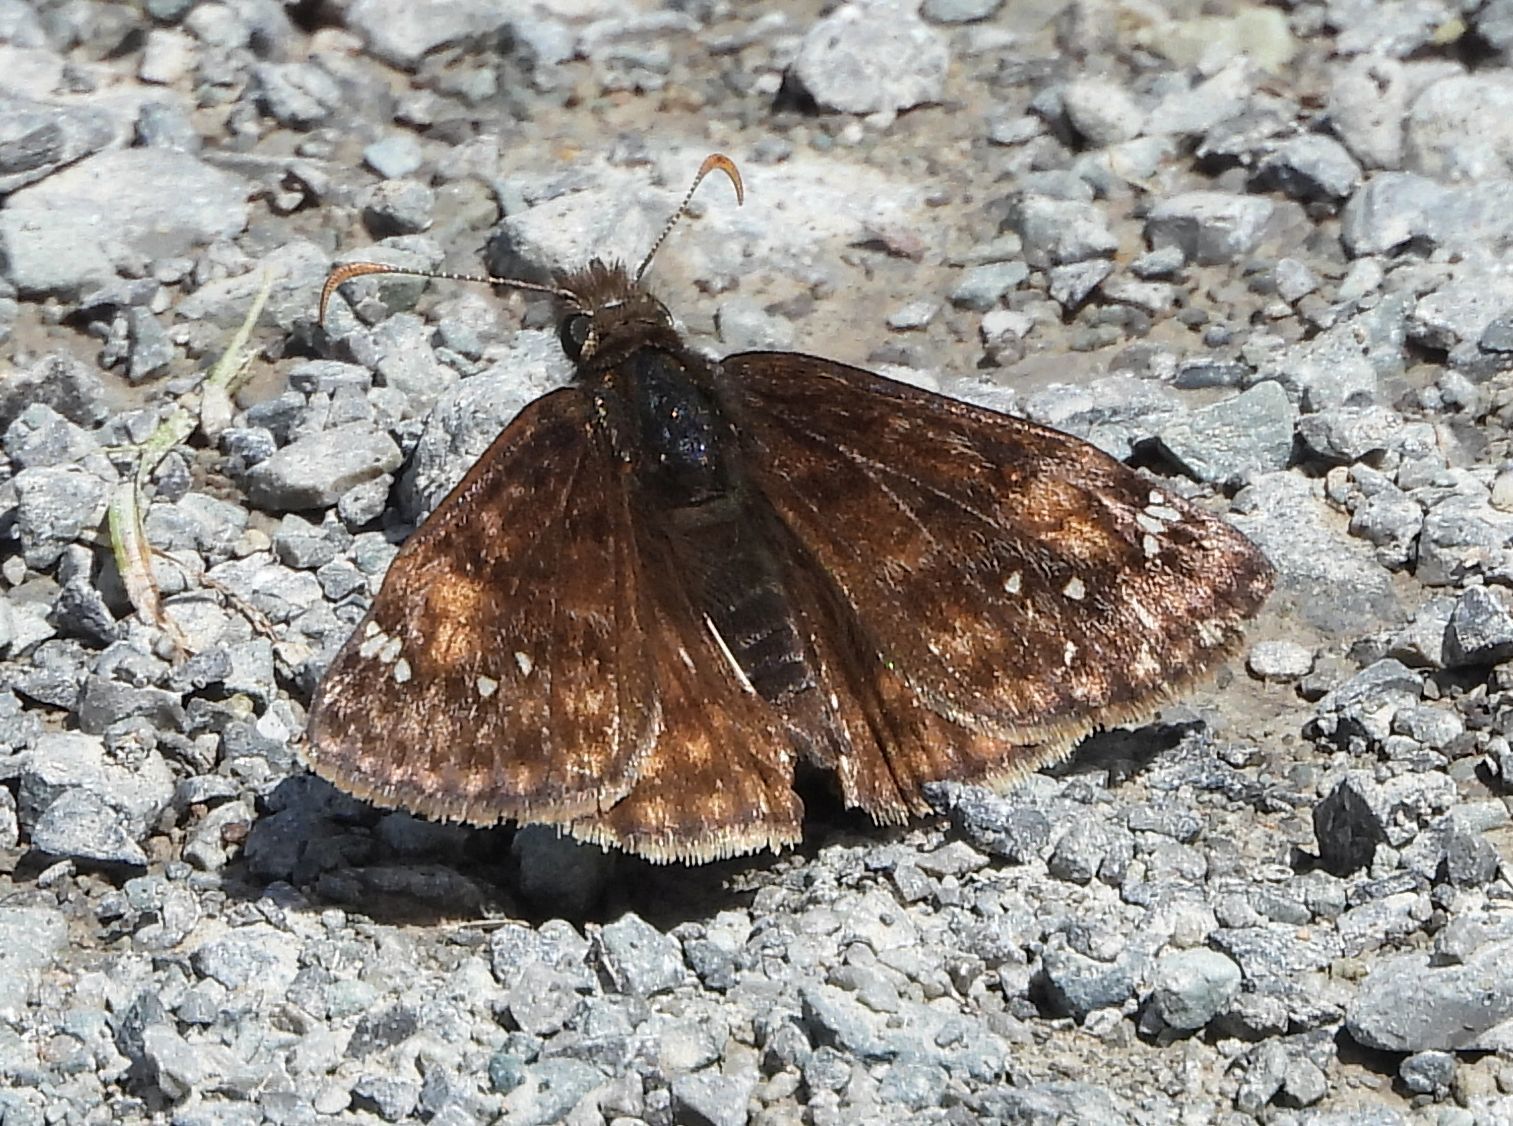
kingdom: Animalia
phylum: Arthropoda
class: Insecta
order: Lepidoptera
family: Hesperiidae
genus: Erynnis
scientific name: Erynnis juvenalis
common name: Juvenal's duskywing
